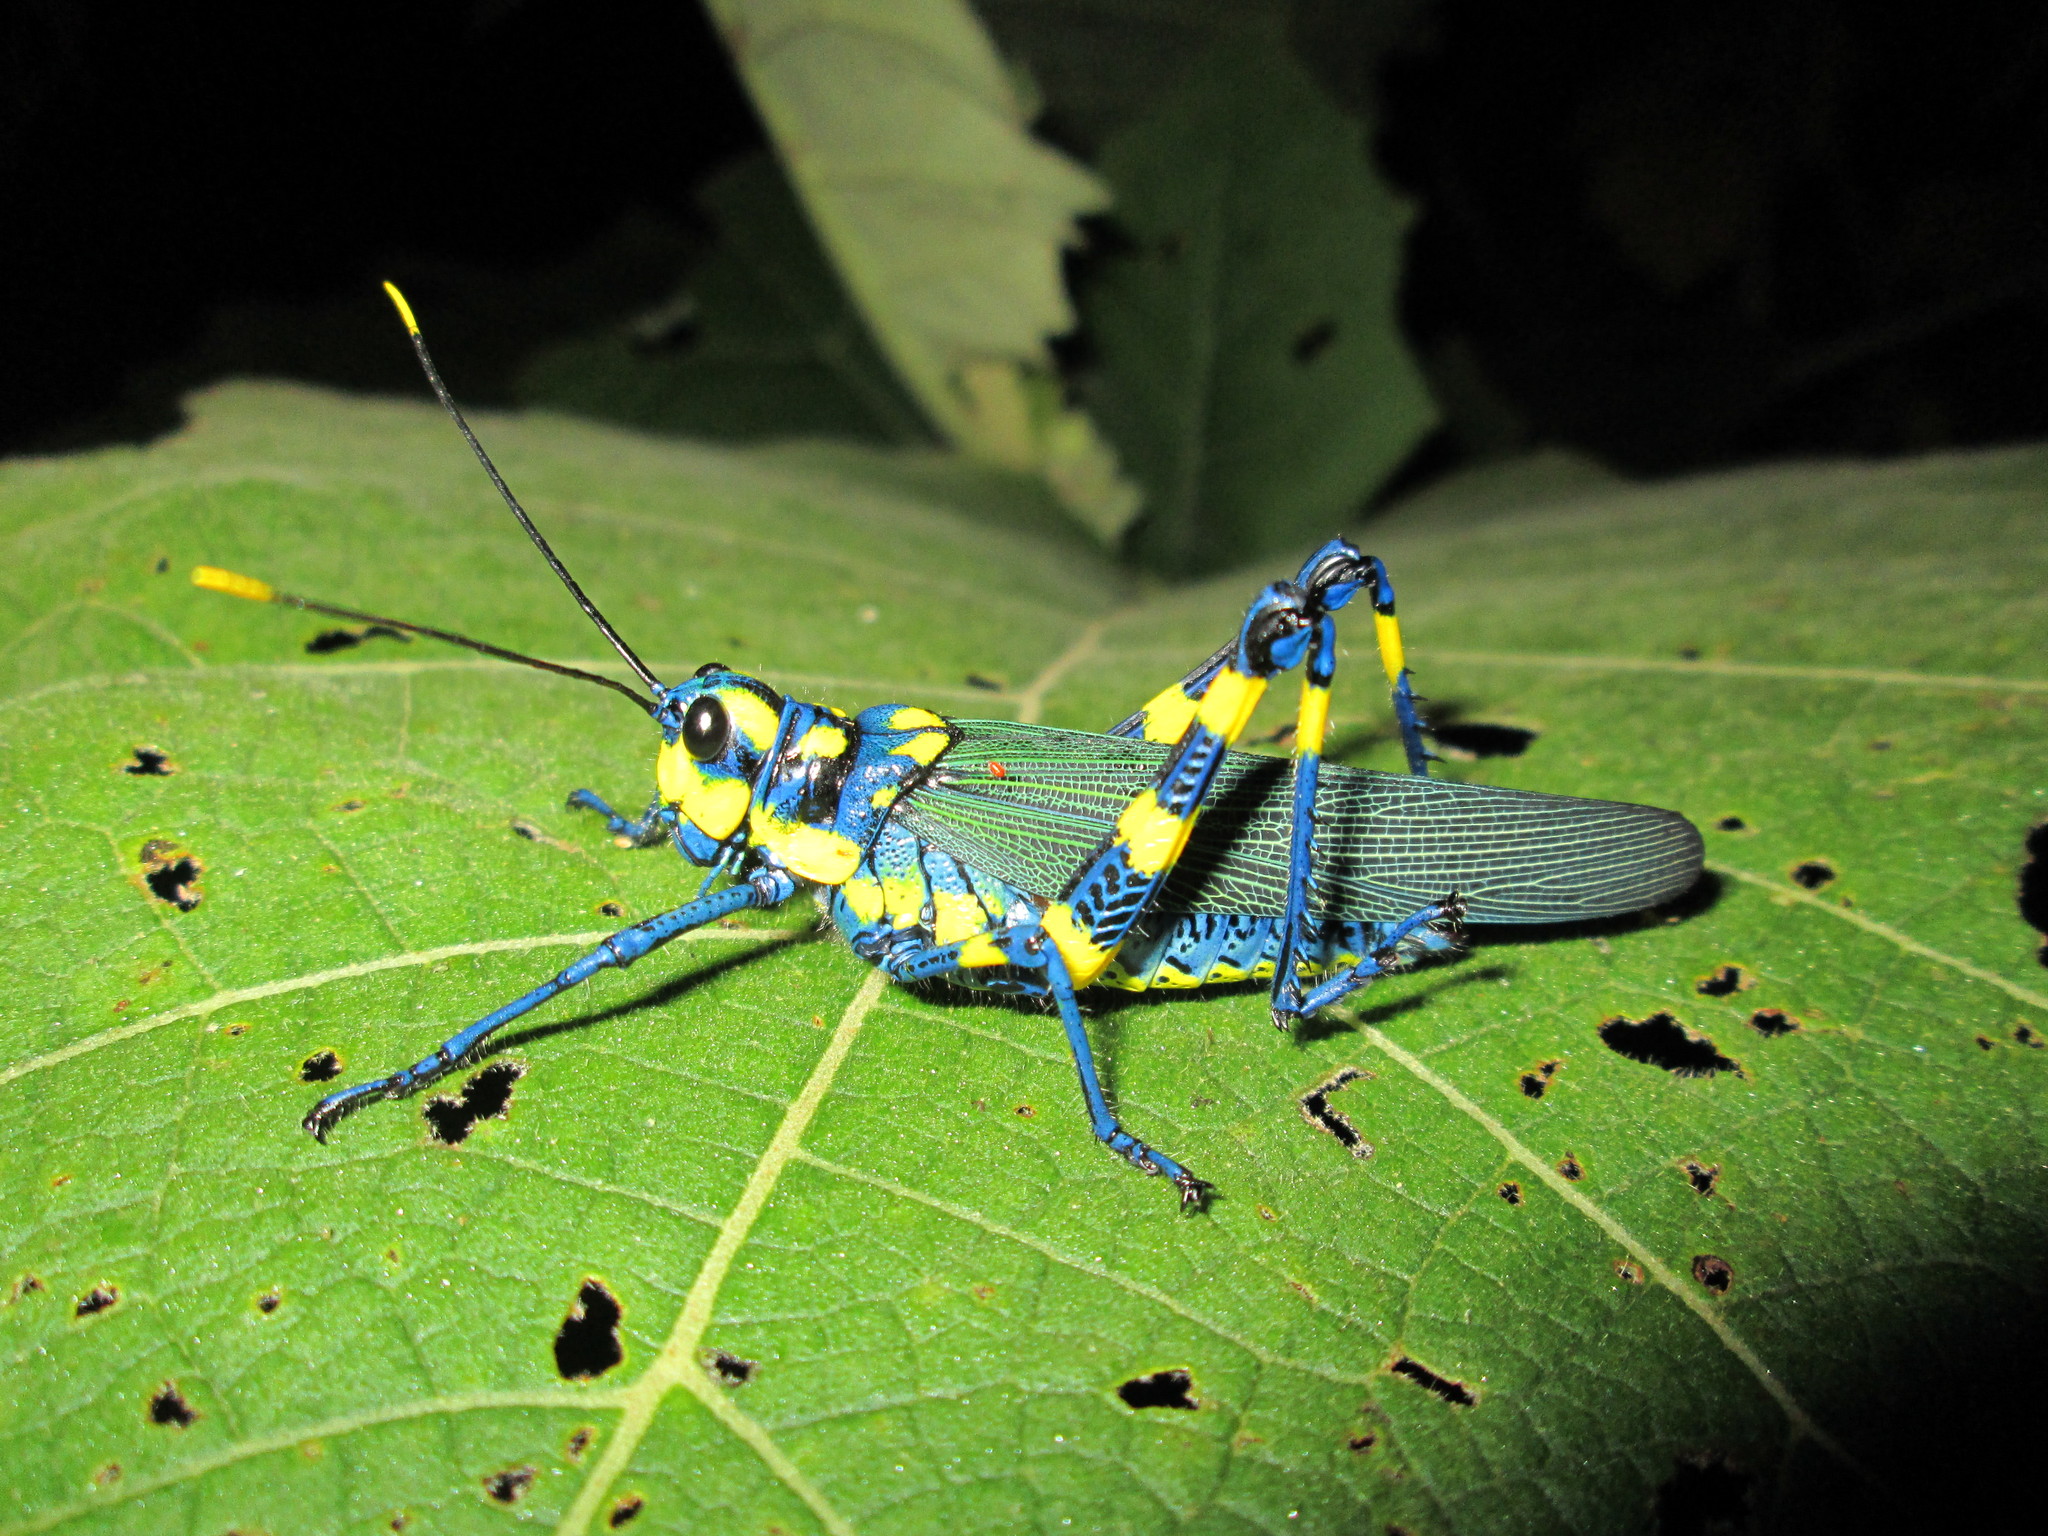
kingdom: Animalia
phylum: Arthropoda
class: Insecta
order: Orthoptera
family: Romaleidae
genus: Chromacris
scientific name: Chromacris icterus
